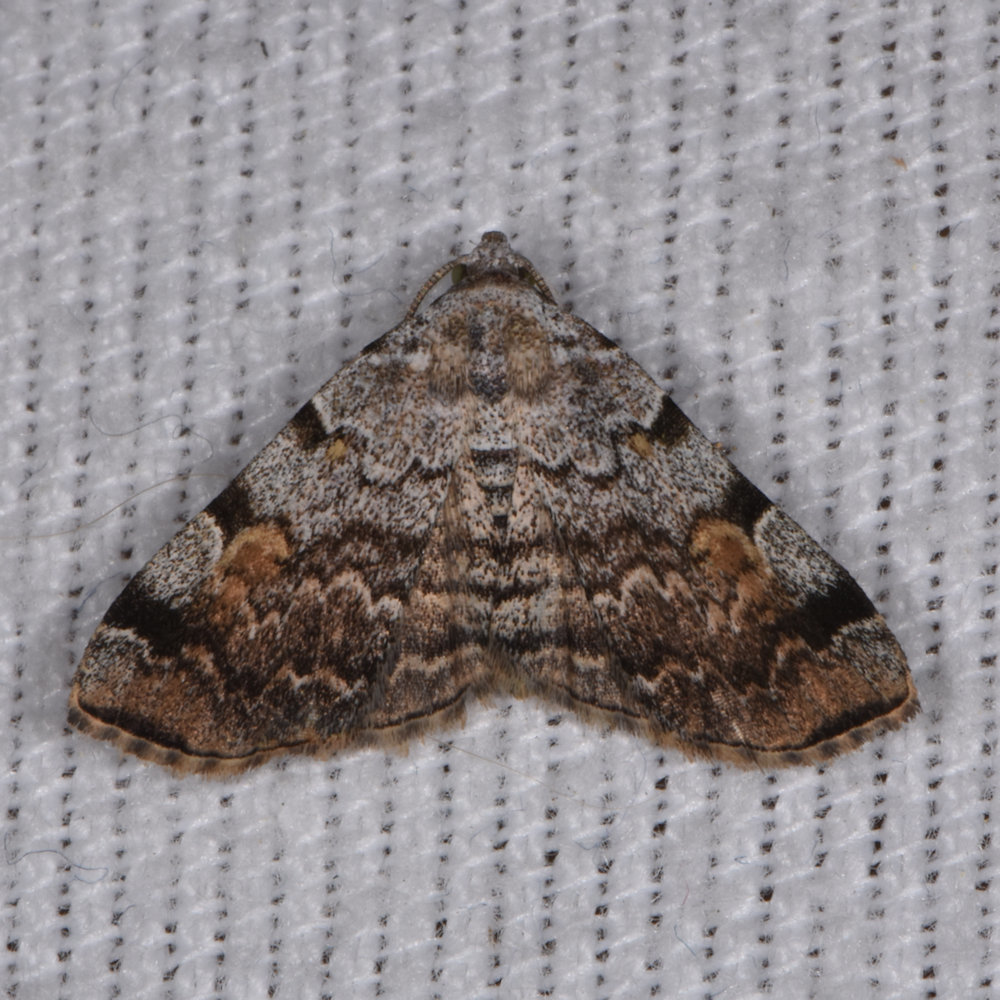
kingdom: Animalia
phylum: Arthropoda
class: Insecta
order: Lepidoptera
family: Erebidae
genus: Idia
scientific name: Idia americalis
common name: American idia moth
